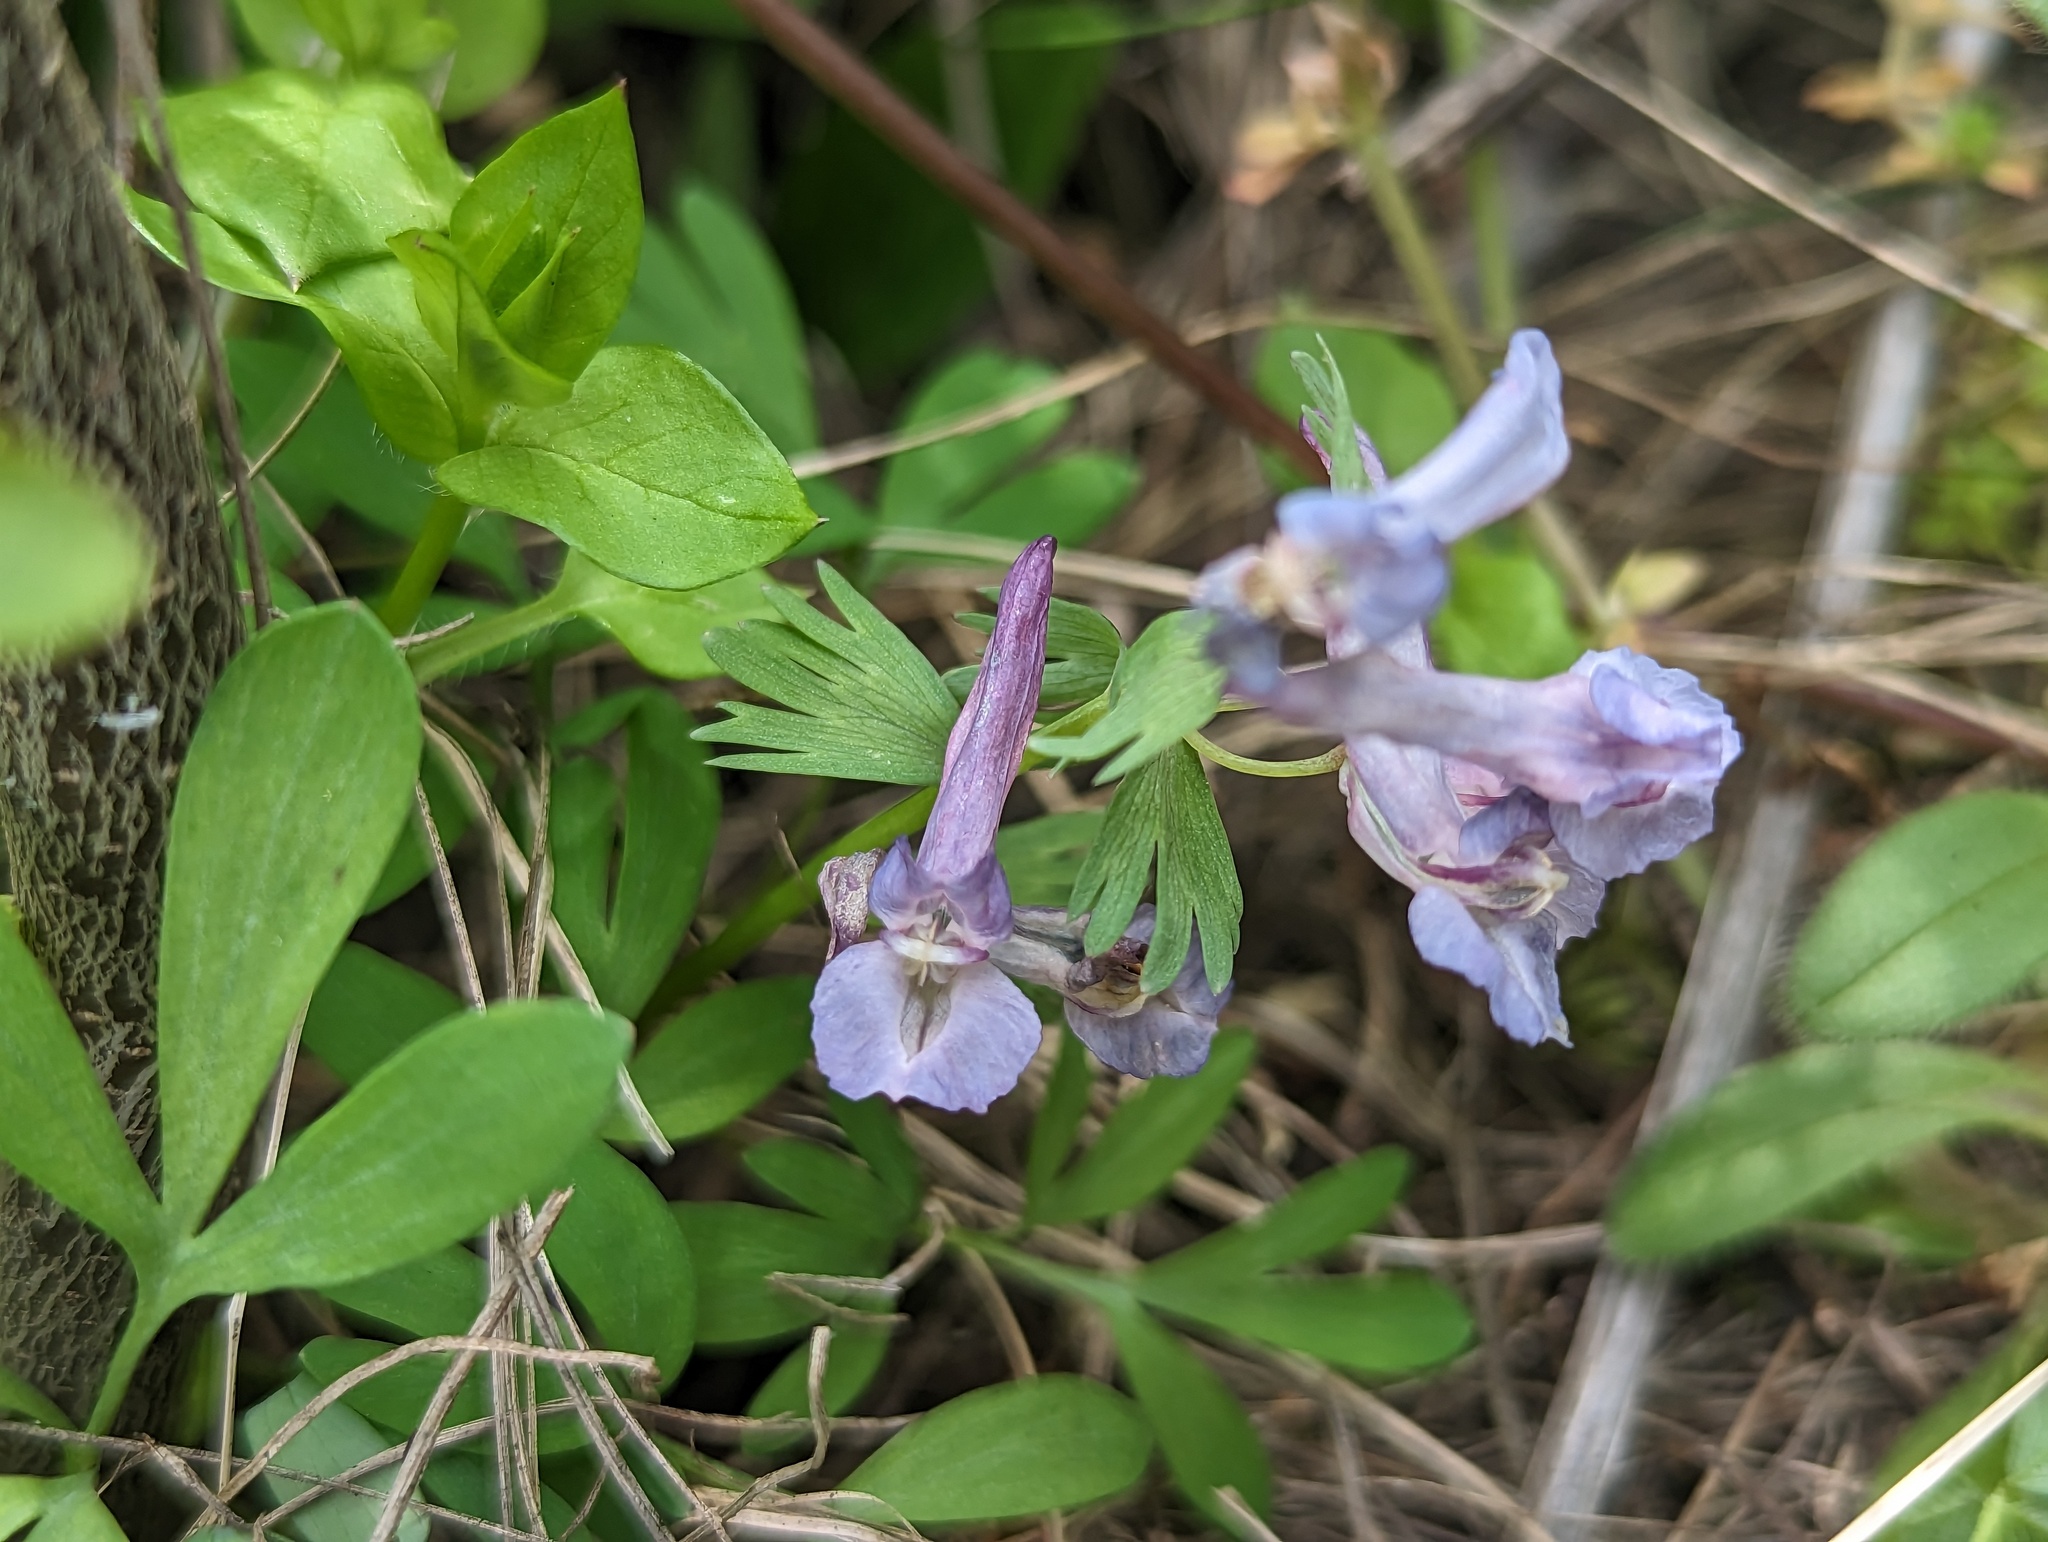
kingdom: Plantae
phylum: Tracheophyta
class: Magnoliopsida
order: Ranunculales
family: Papaveraceae
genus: Corydalis
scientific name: Corydalis solida
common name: Bird-in-a-bush
